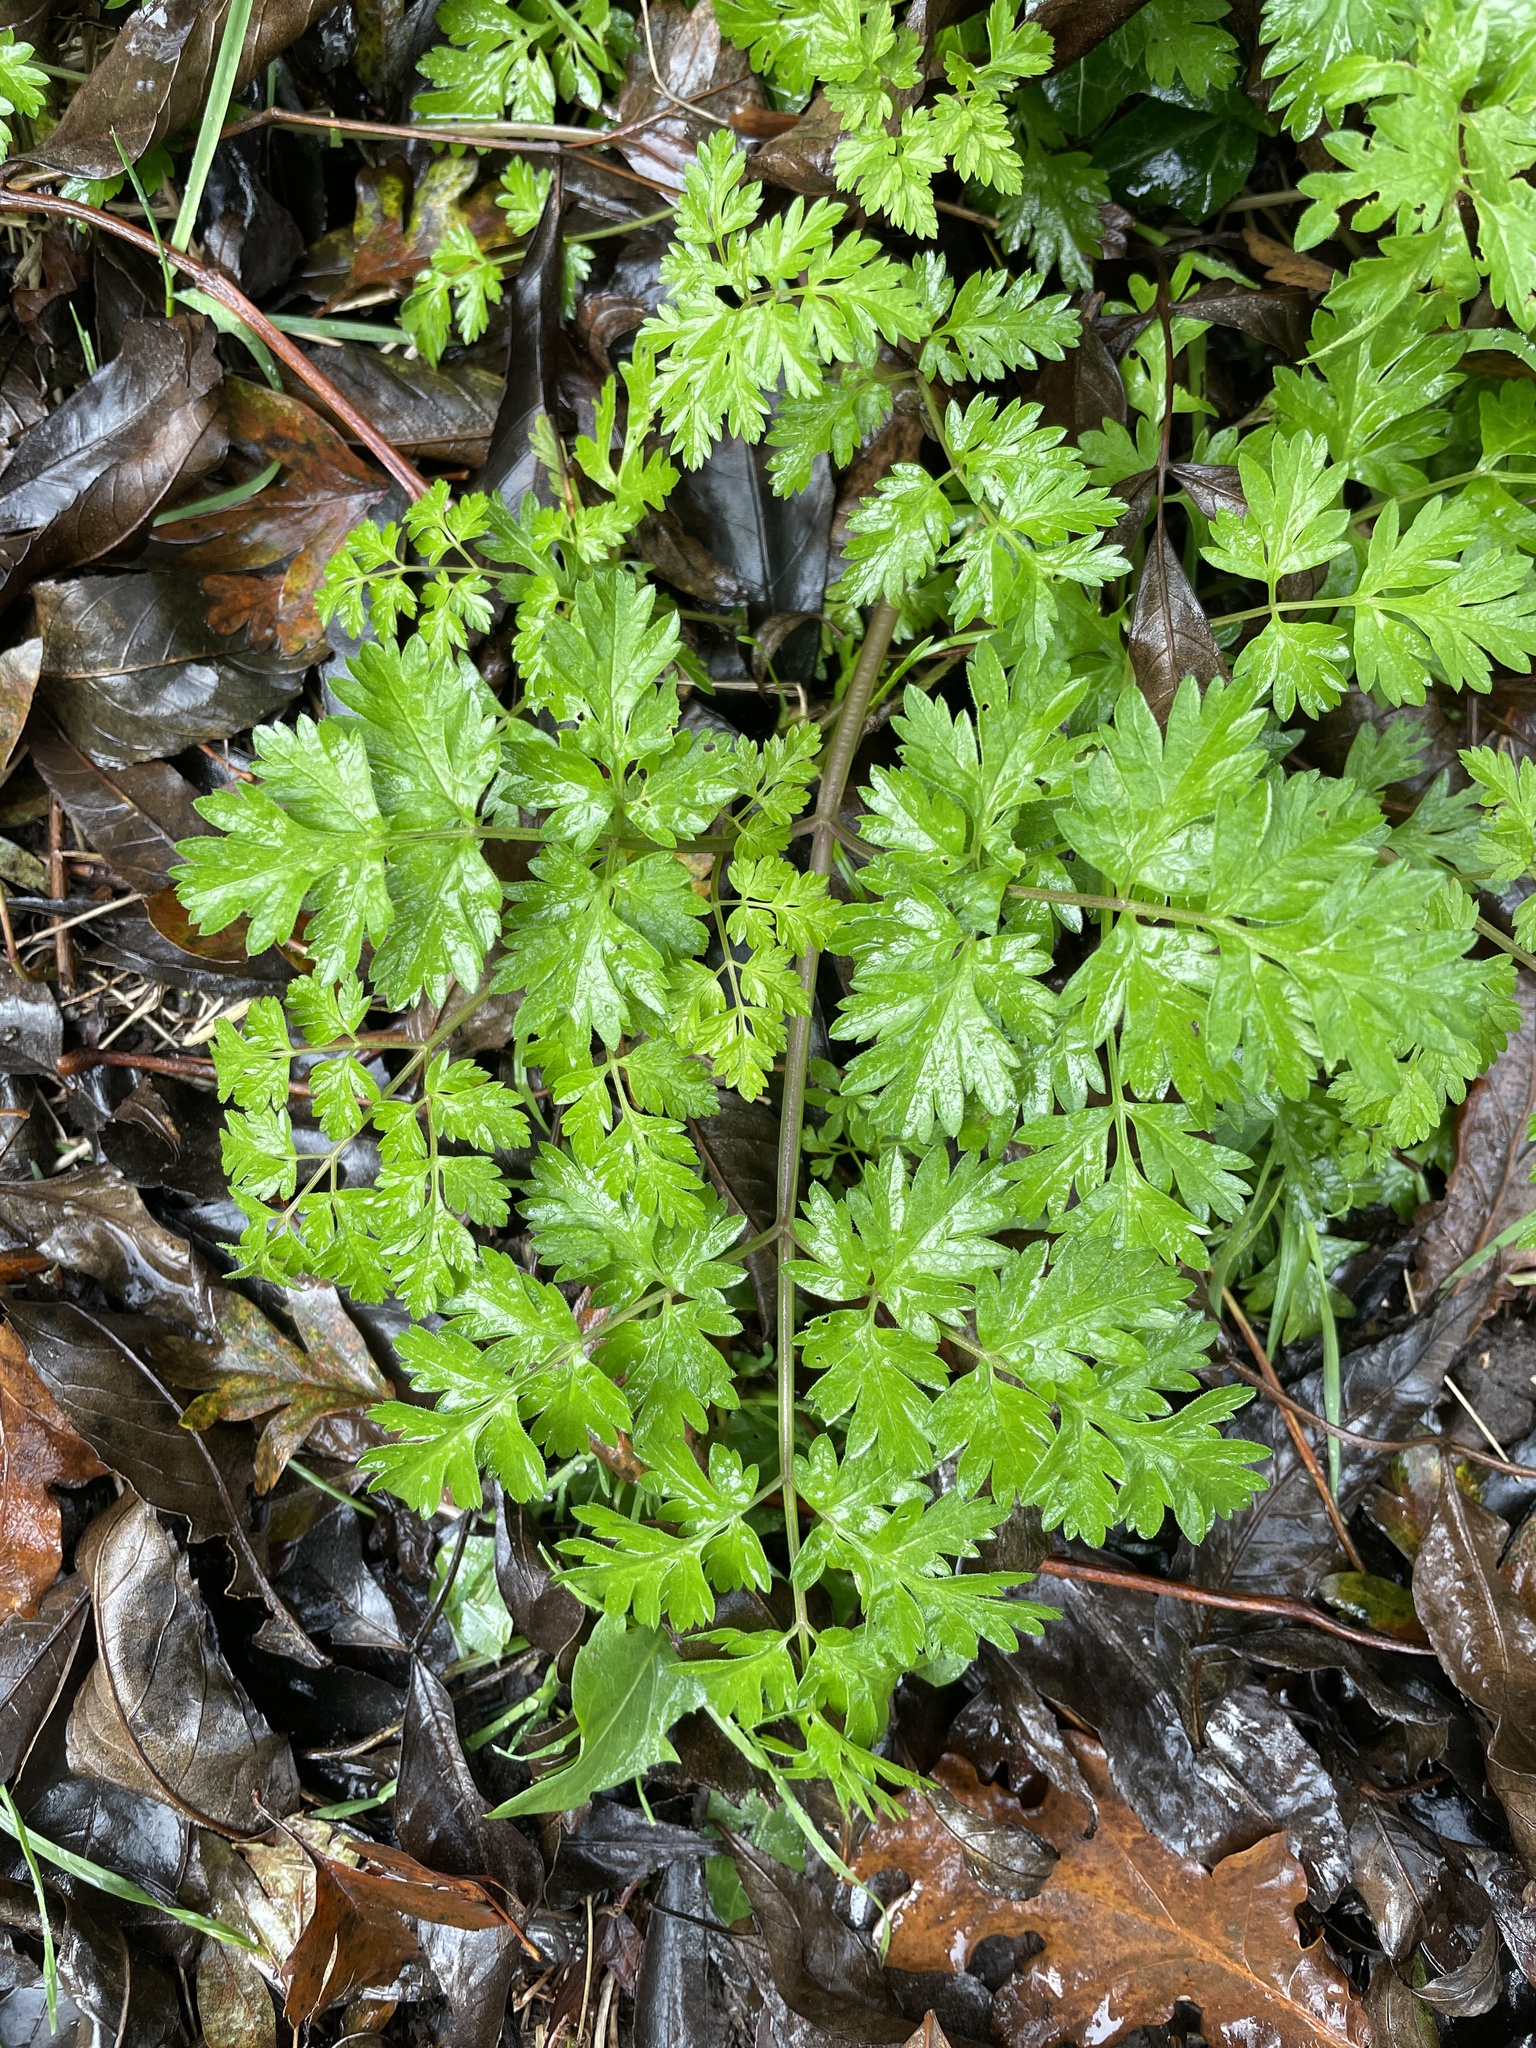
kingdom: Plantae
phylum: Tracheophyta
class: Magnoliopsida
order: Apiales
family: Apiaceae
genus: Anthriscus
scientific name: Anthriscus sylvestris
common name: Cow parsley
